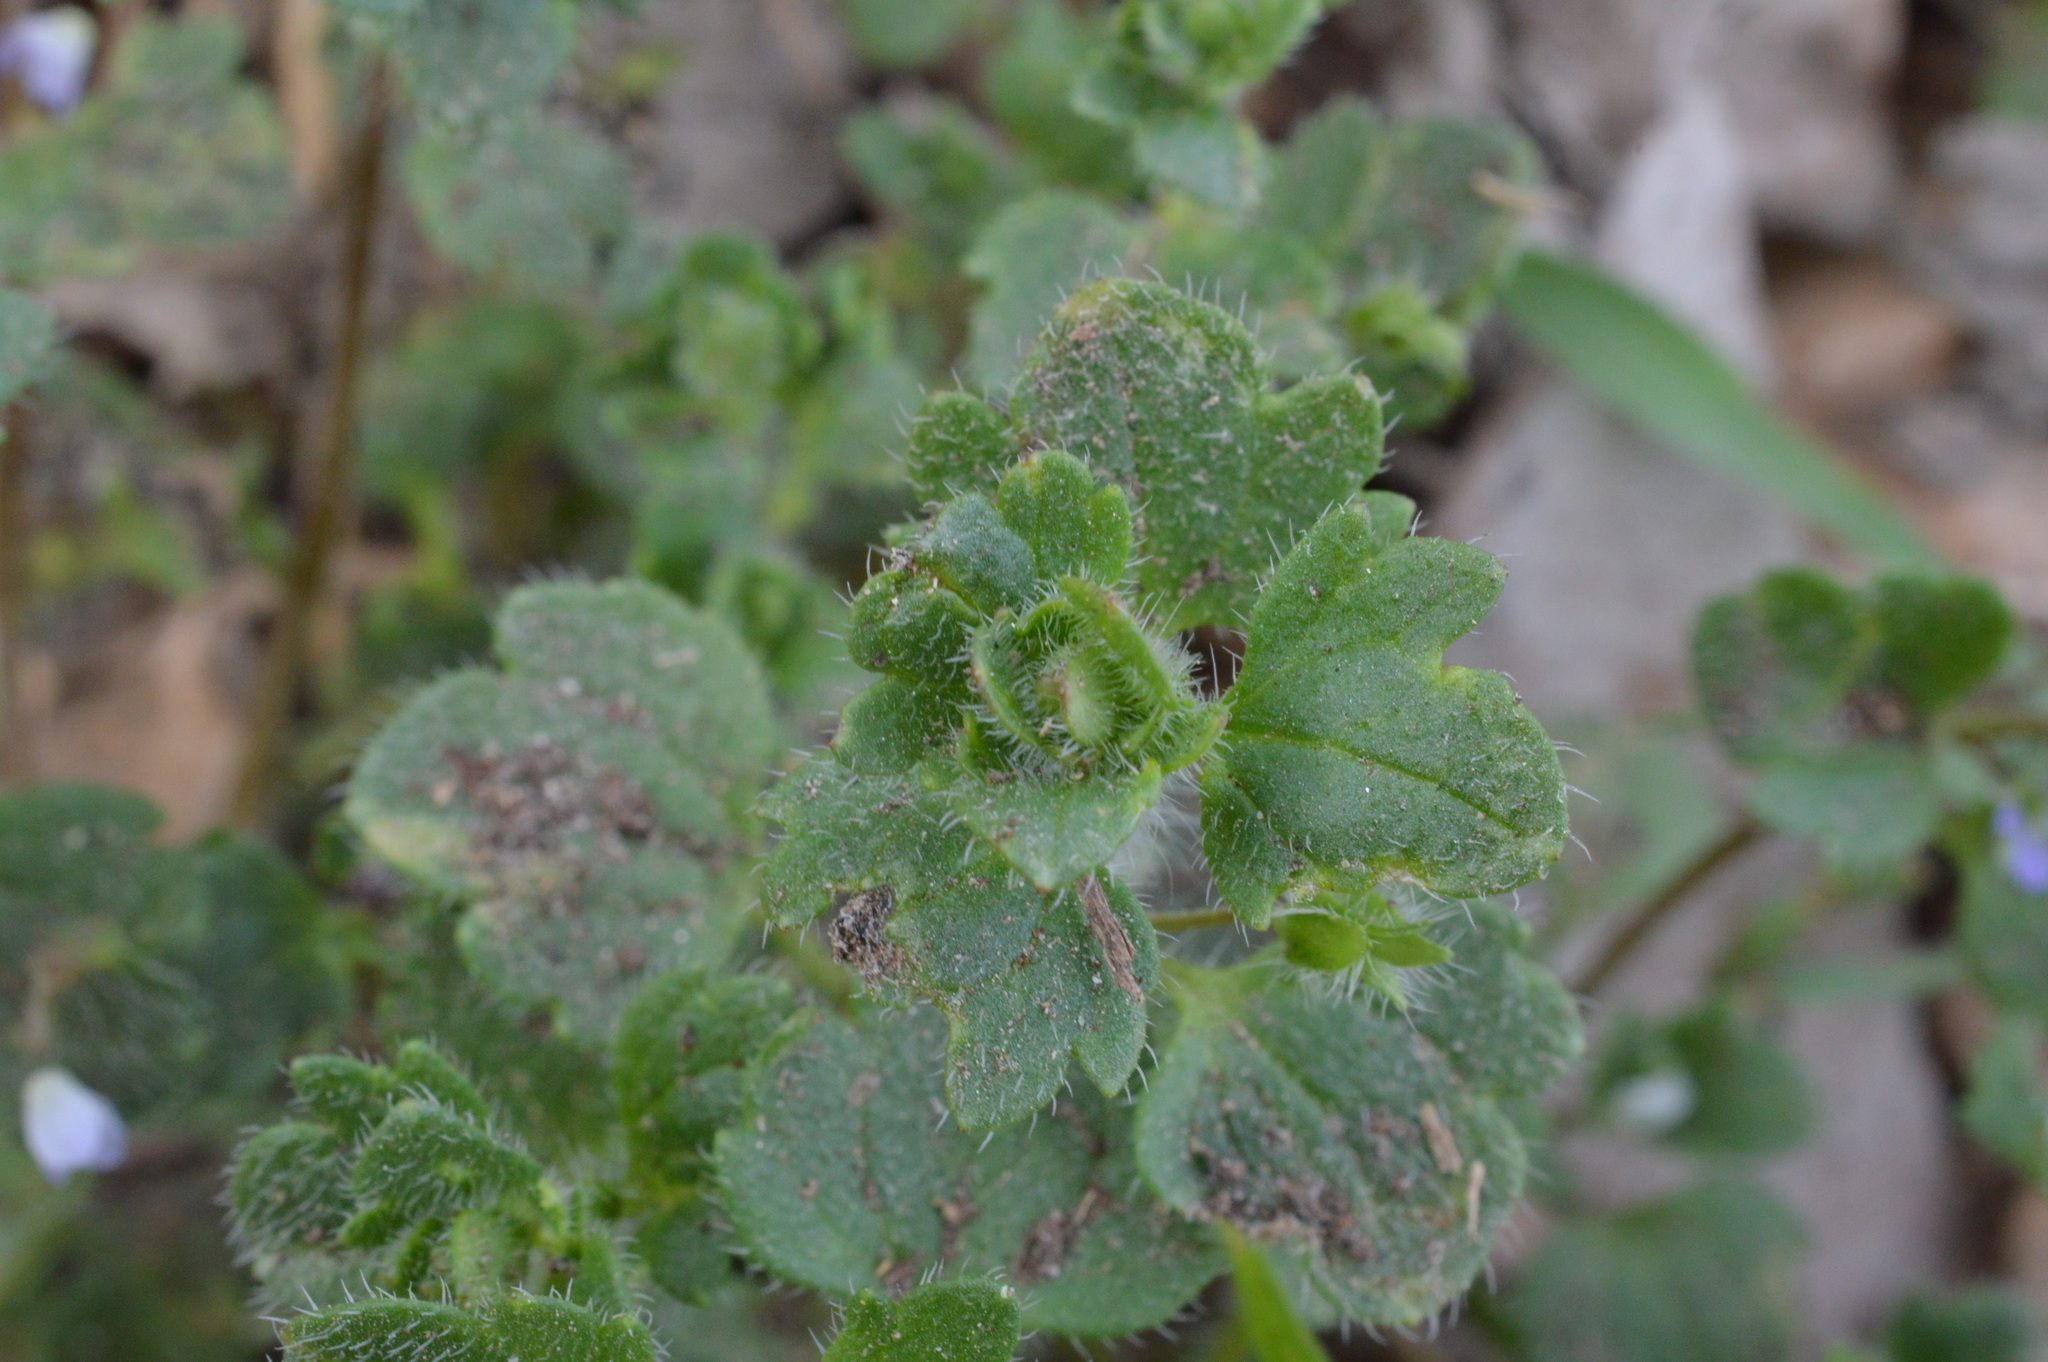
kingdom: Plantae
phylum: Tracheophyta
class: Magnoliopsida
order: Lamiales
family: Plantaginaceae
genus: Veronica
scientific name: Veronica hederifolia
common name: Ivy-leaved speedwell
